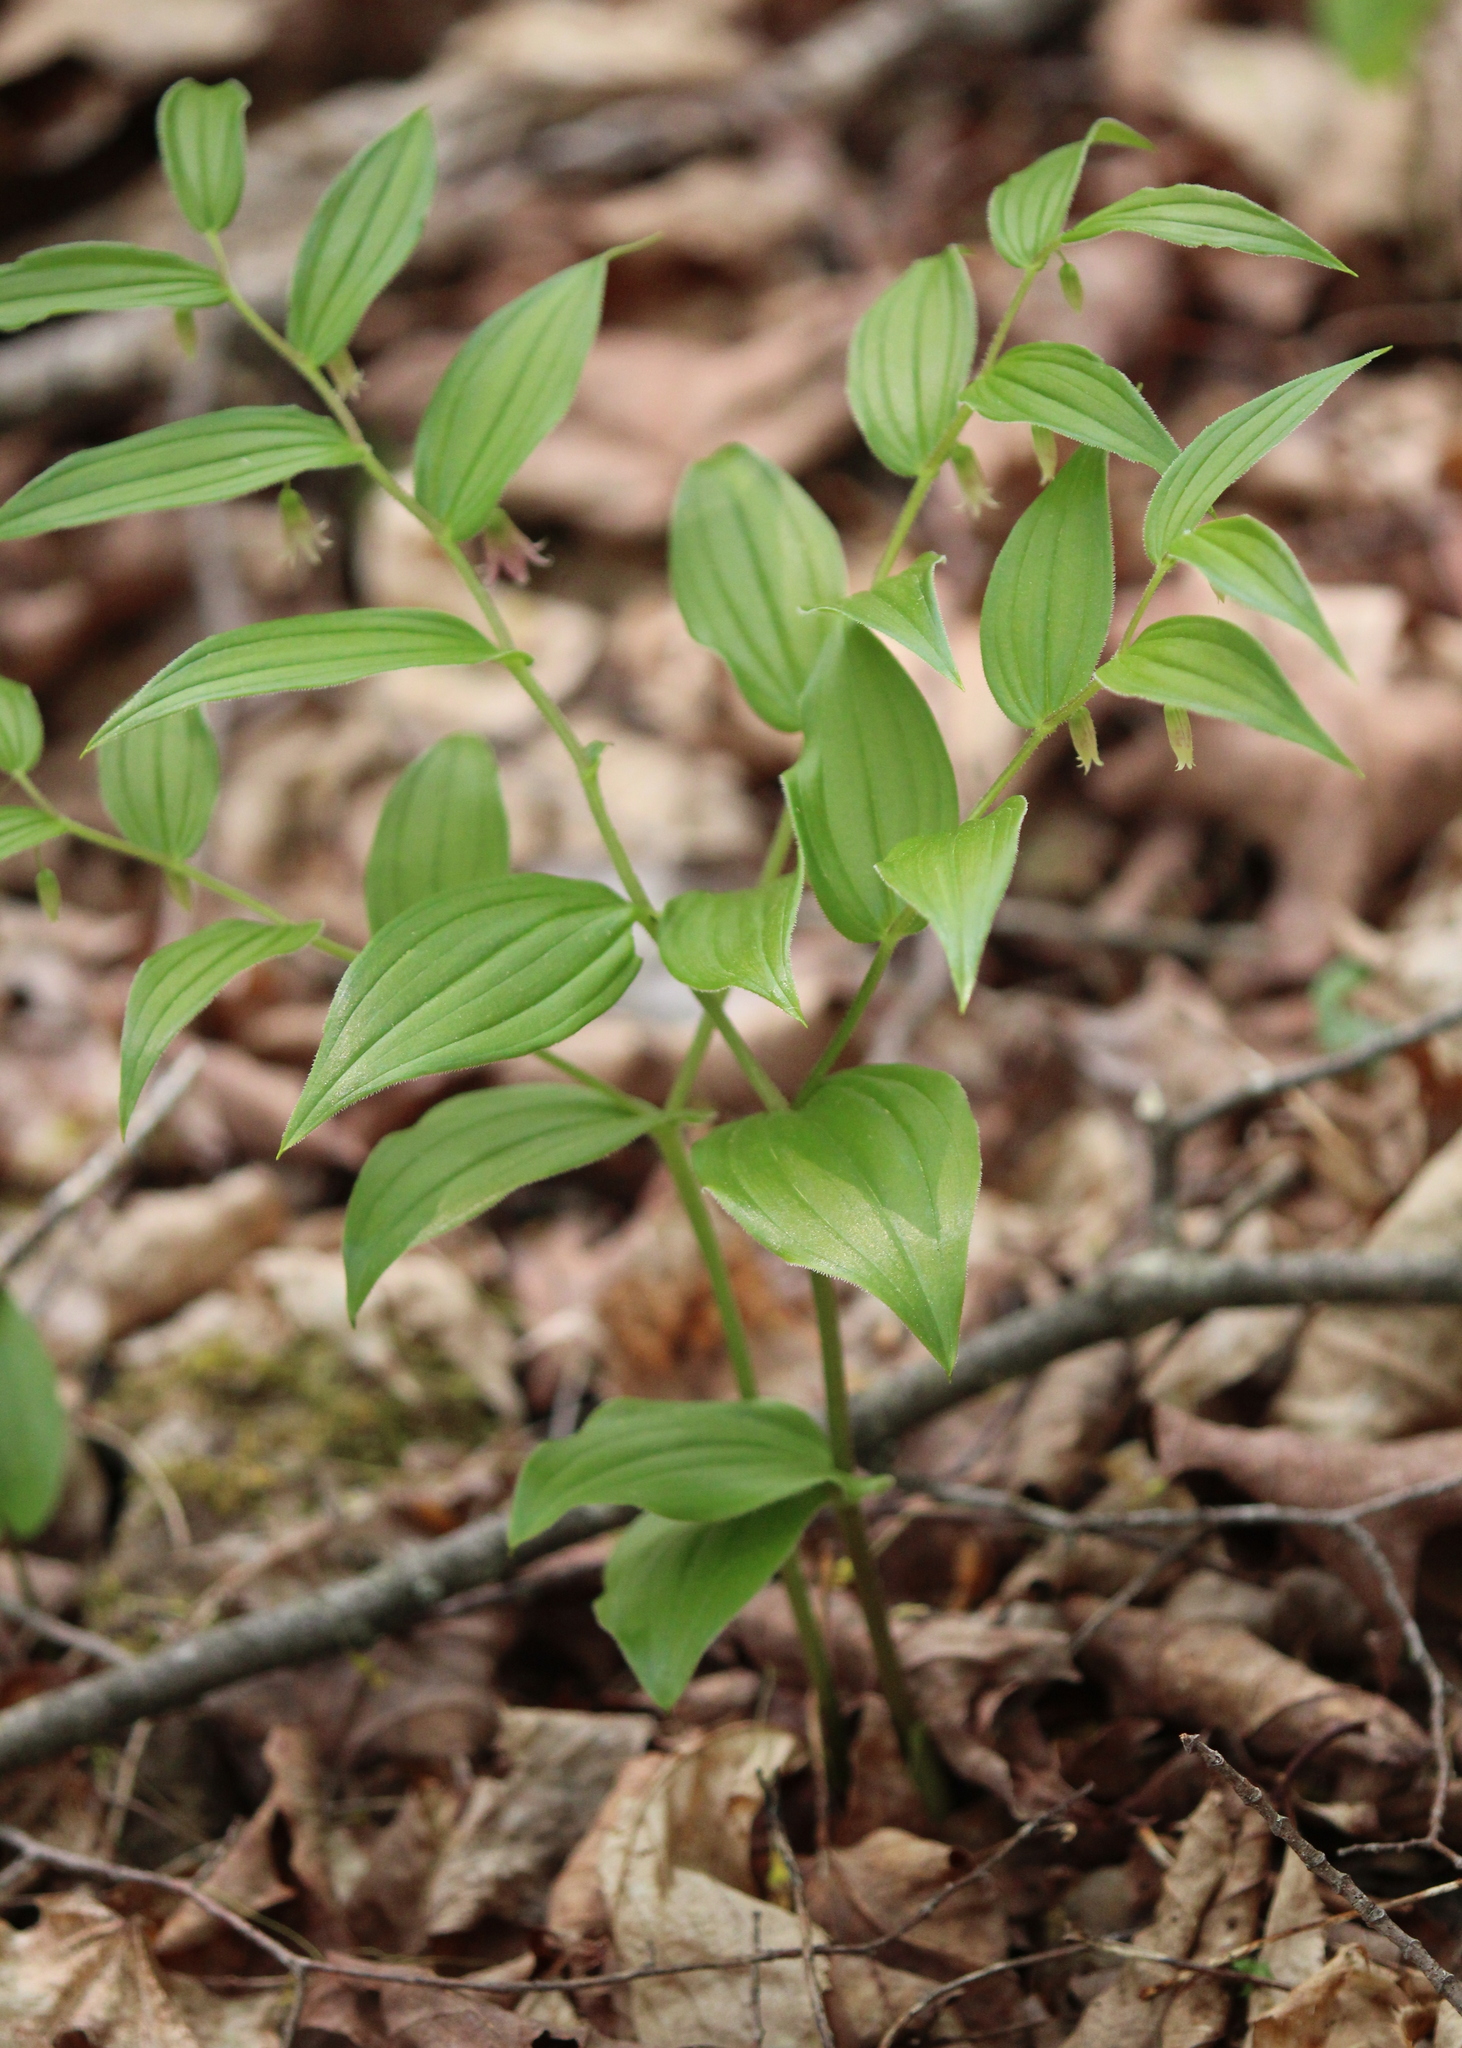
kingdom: Plantae
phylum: Tracheophyta
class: Liliopsida
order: Liliales
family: Liliaceae
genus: Streptopus
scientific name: Streptopus lanceolatus
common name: Rose mandarin
